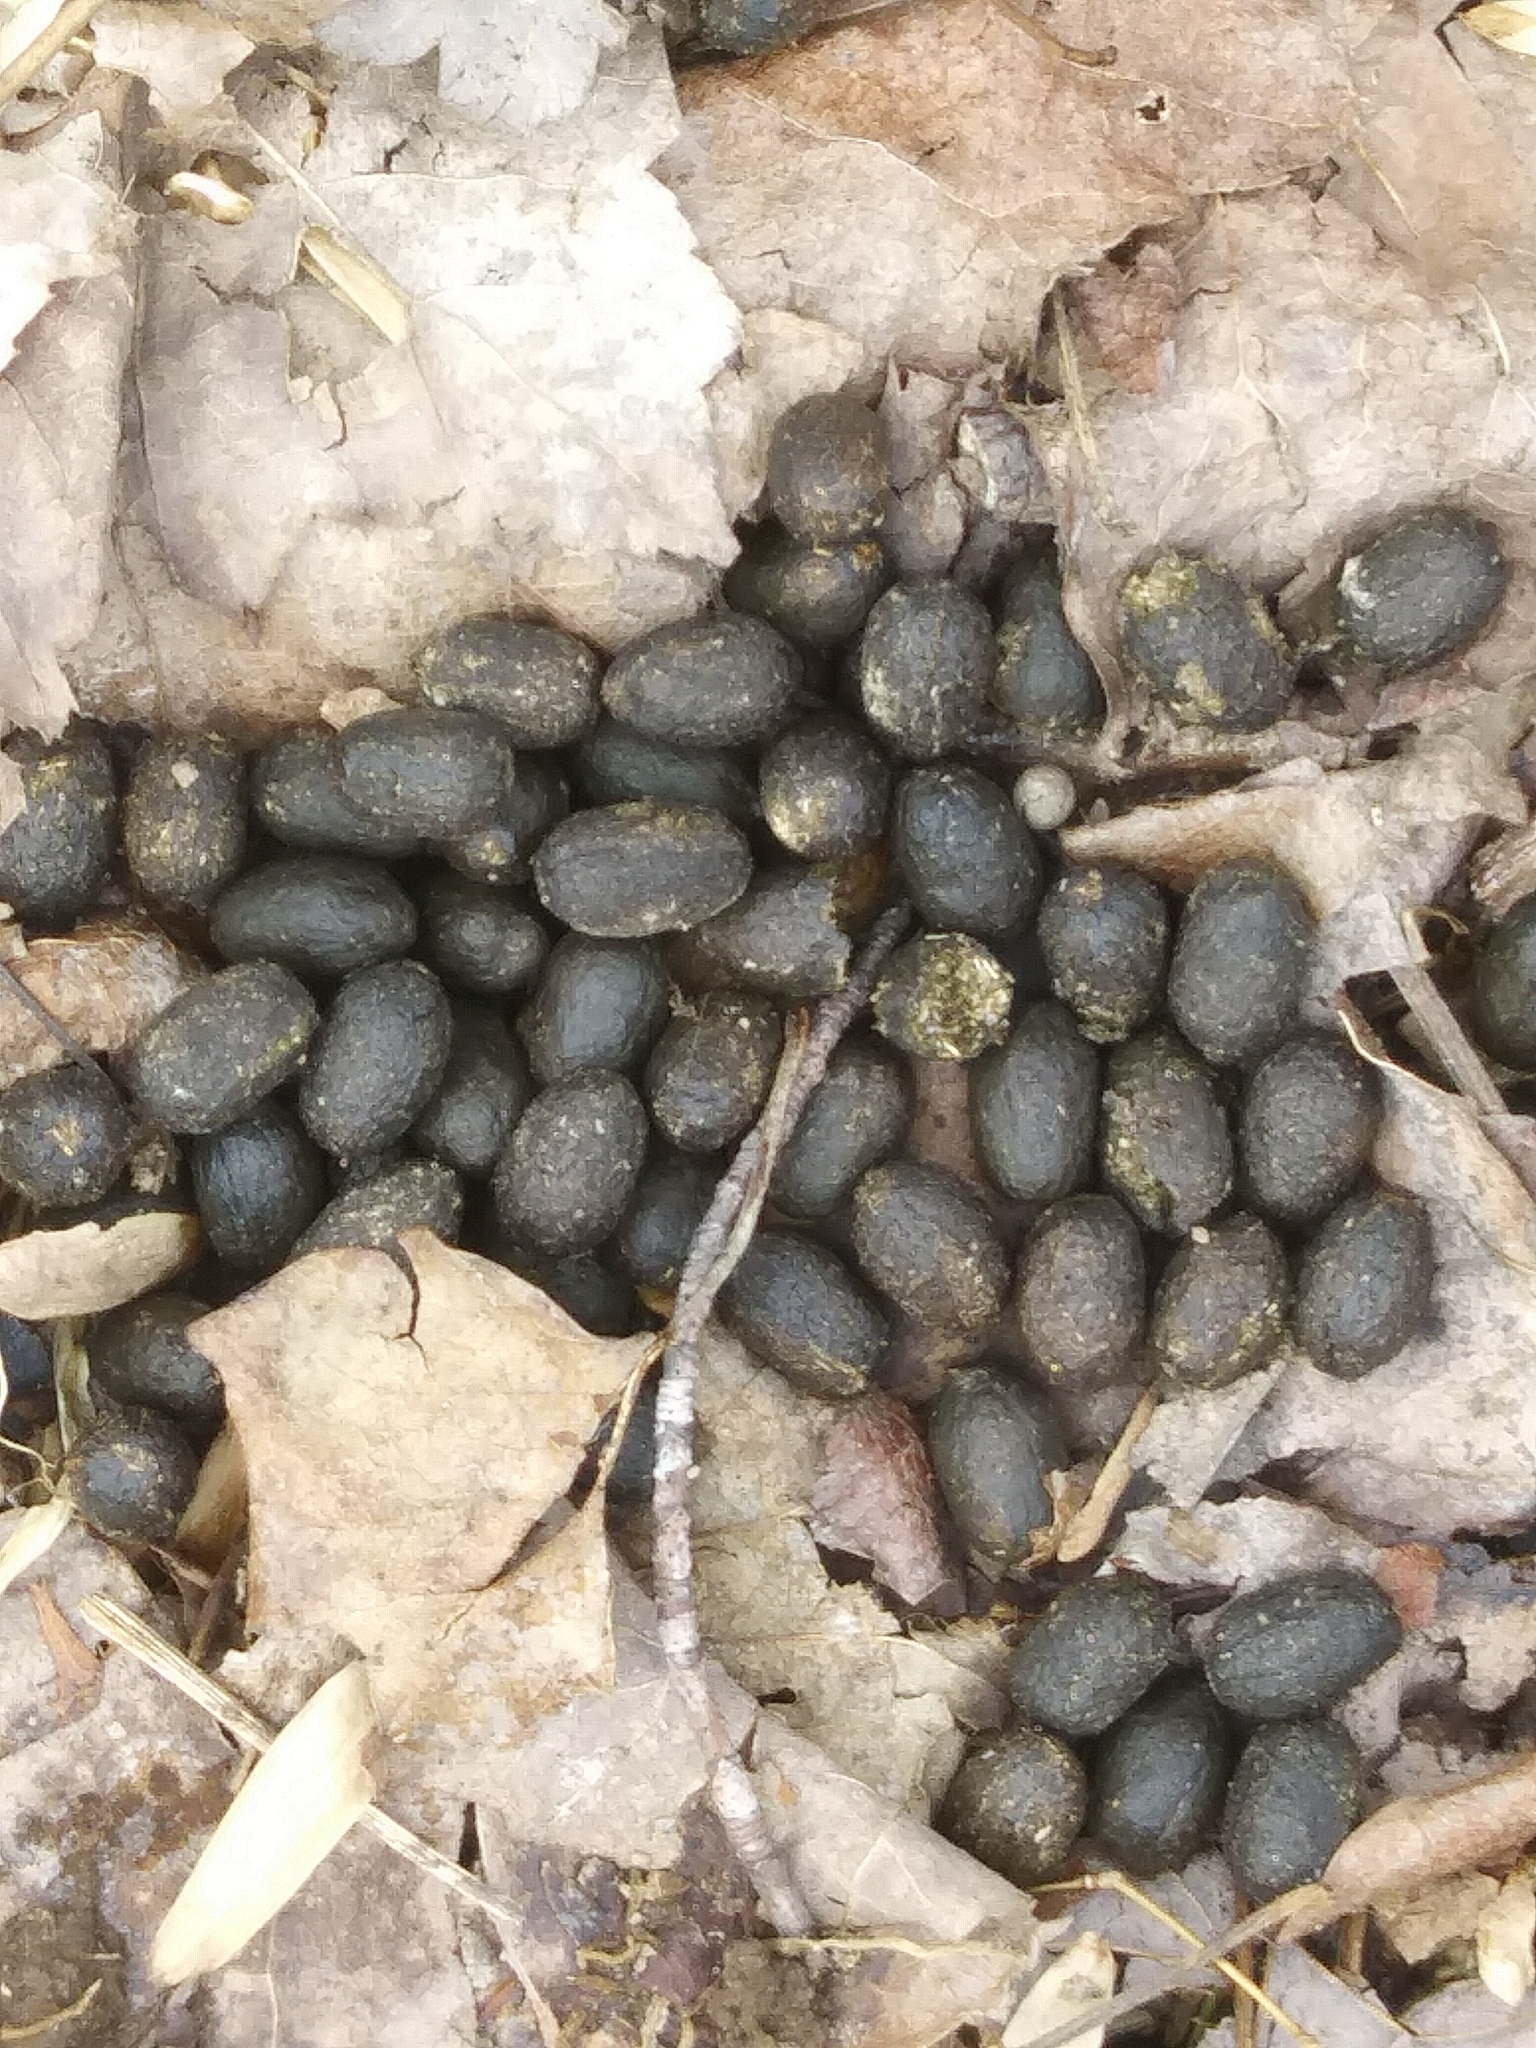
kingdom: Animalia
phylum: Chordata
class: Mammalia
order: Artiodactyla
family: Cervidae
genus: Odocoileus
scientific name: Odocoileus virginianus
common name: White-tailed deer
